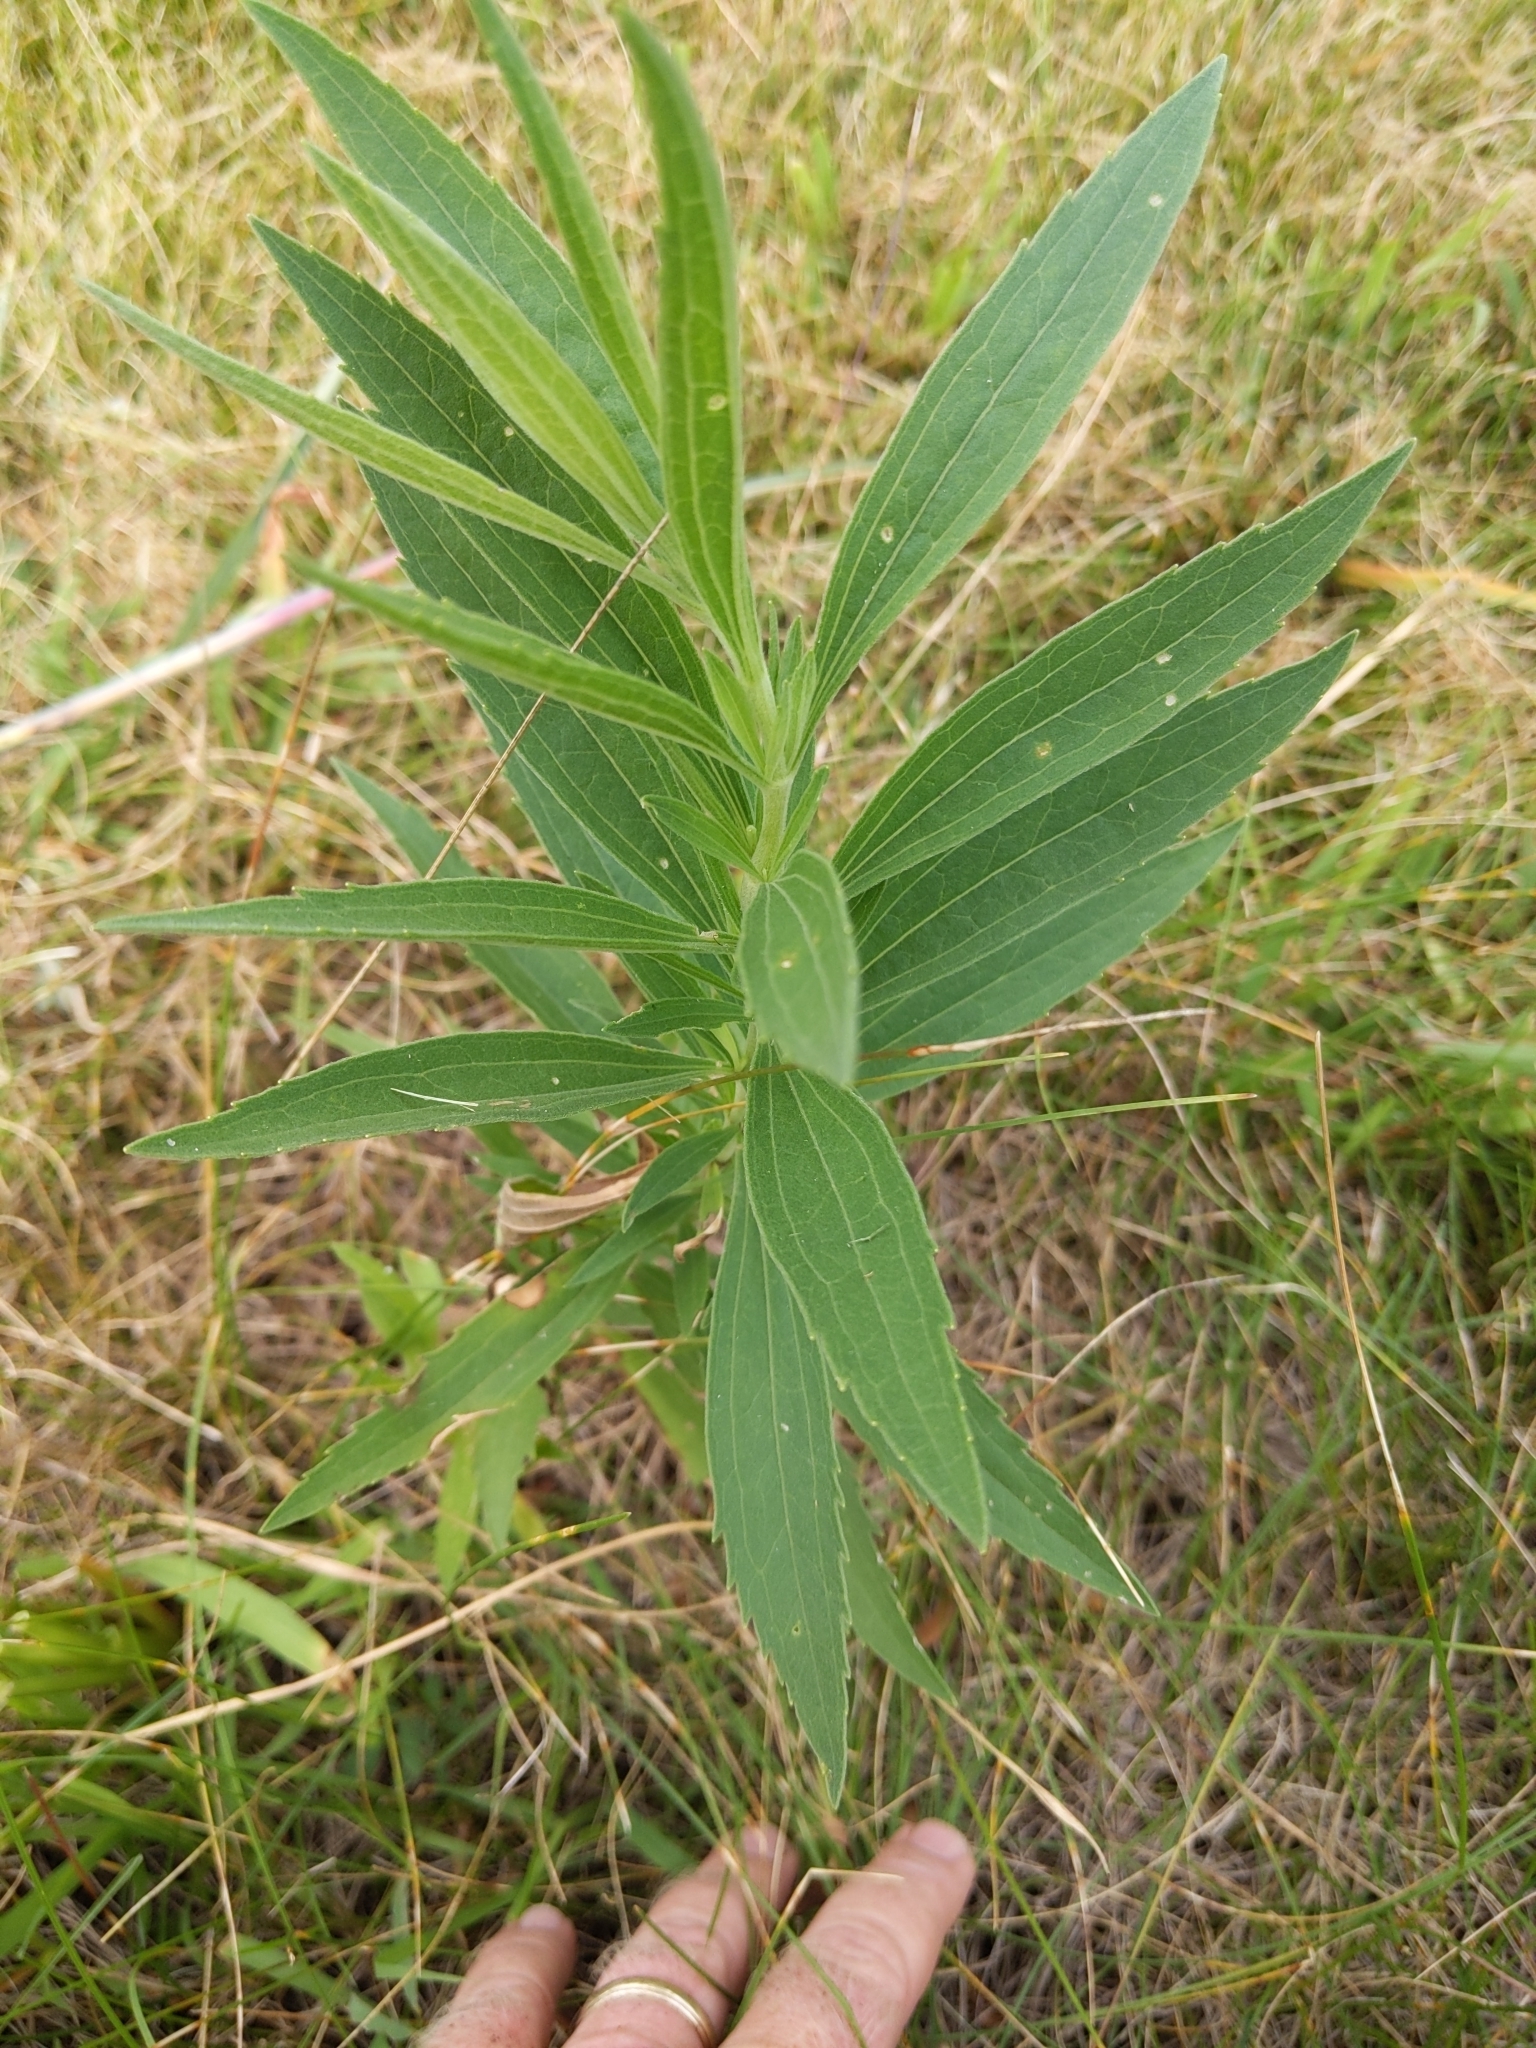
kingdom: Plantae
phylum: Tracheophyta
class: Magnoliopsida
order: Asterales
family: Asteraceae
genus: Eupatorium
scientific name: Eupatorium altissimum
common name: Tall thoroughwort
